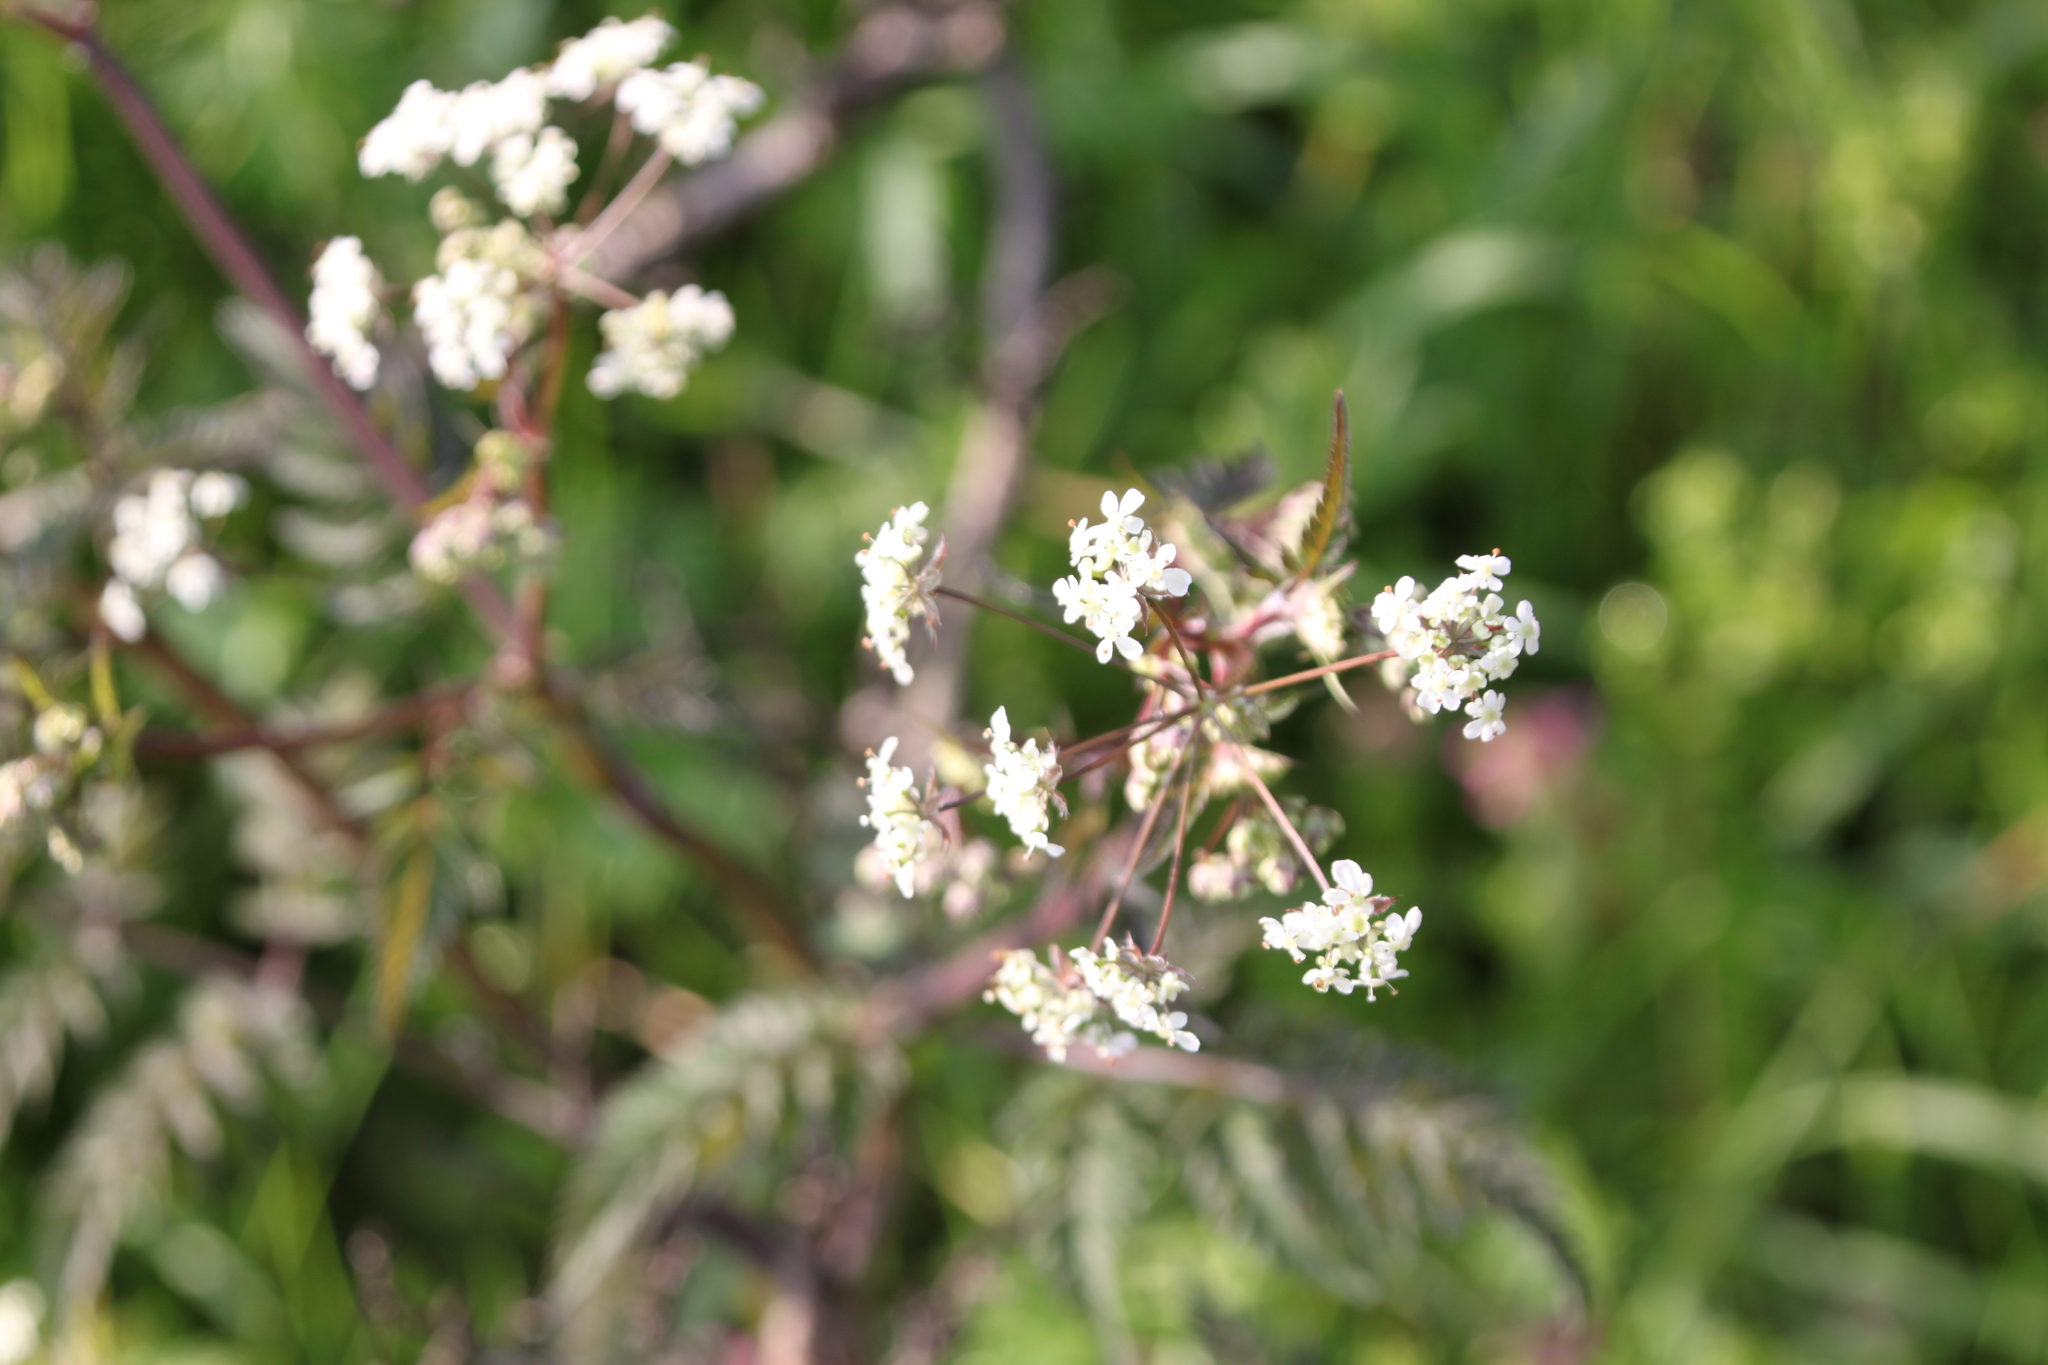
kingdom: Plantae
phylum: Tracheophyta
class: Magnoliopsida
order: Apiales
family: Apiaceae
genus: Anthriscus
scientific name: Anthriscus sylvestris
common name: Cow parsley
